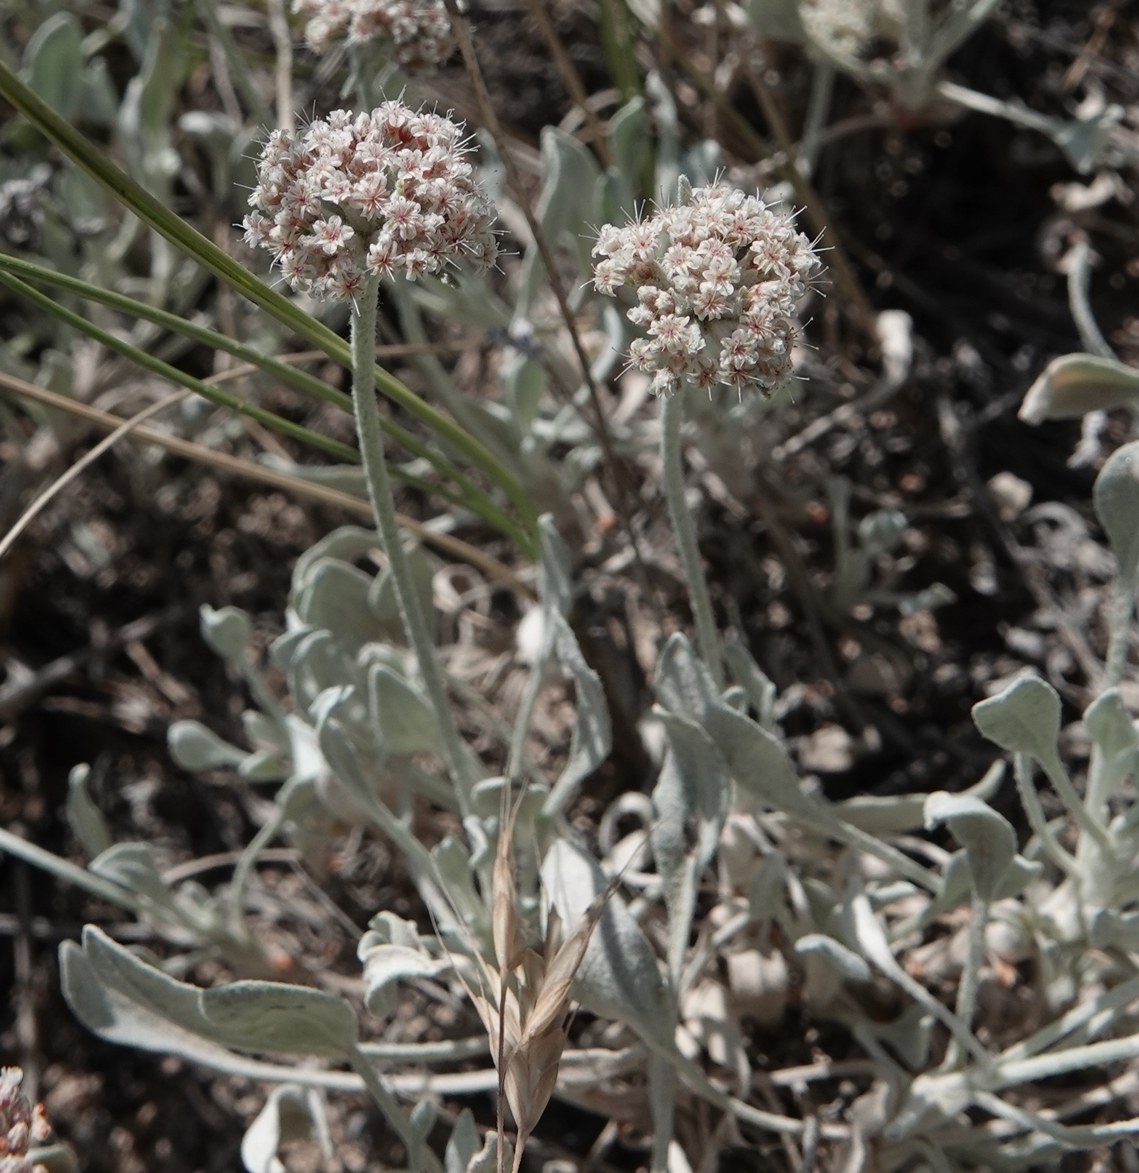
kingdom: Plantae
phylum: Tracheophyta
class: Magnoliopsida
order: Caryophyllales
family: Polygonaceae
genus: Eriogonum
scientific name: Eriogonum pauciflorum
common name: Few-flower wild buckwheat
